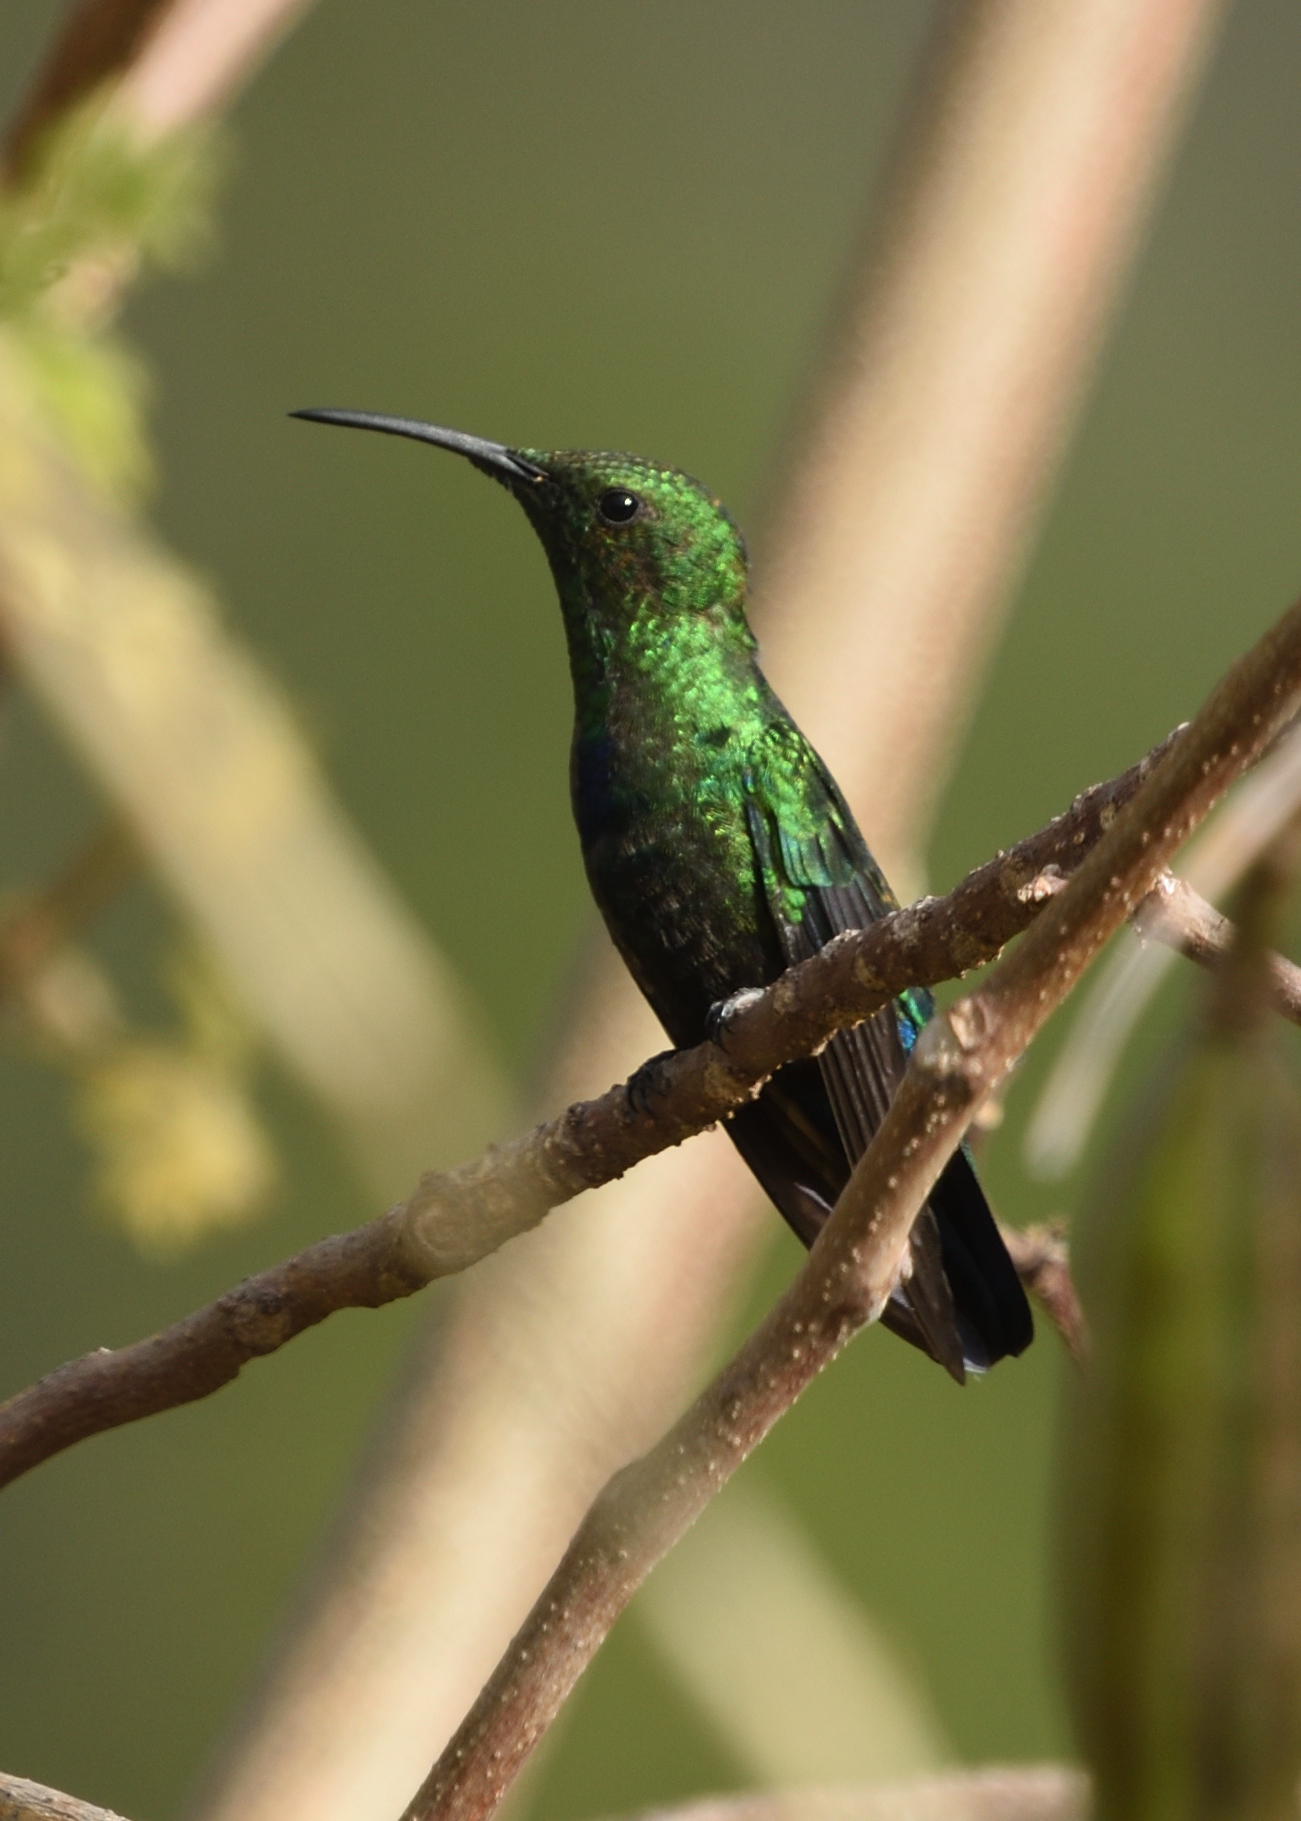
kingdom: Animalia
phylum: Chordata
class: Aves
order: Apodiformes
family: Trochilidae
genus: Eulampis
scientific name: Eulampis holosericeus
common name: Green-throated carib
